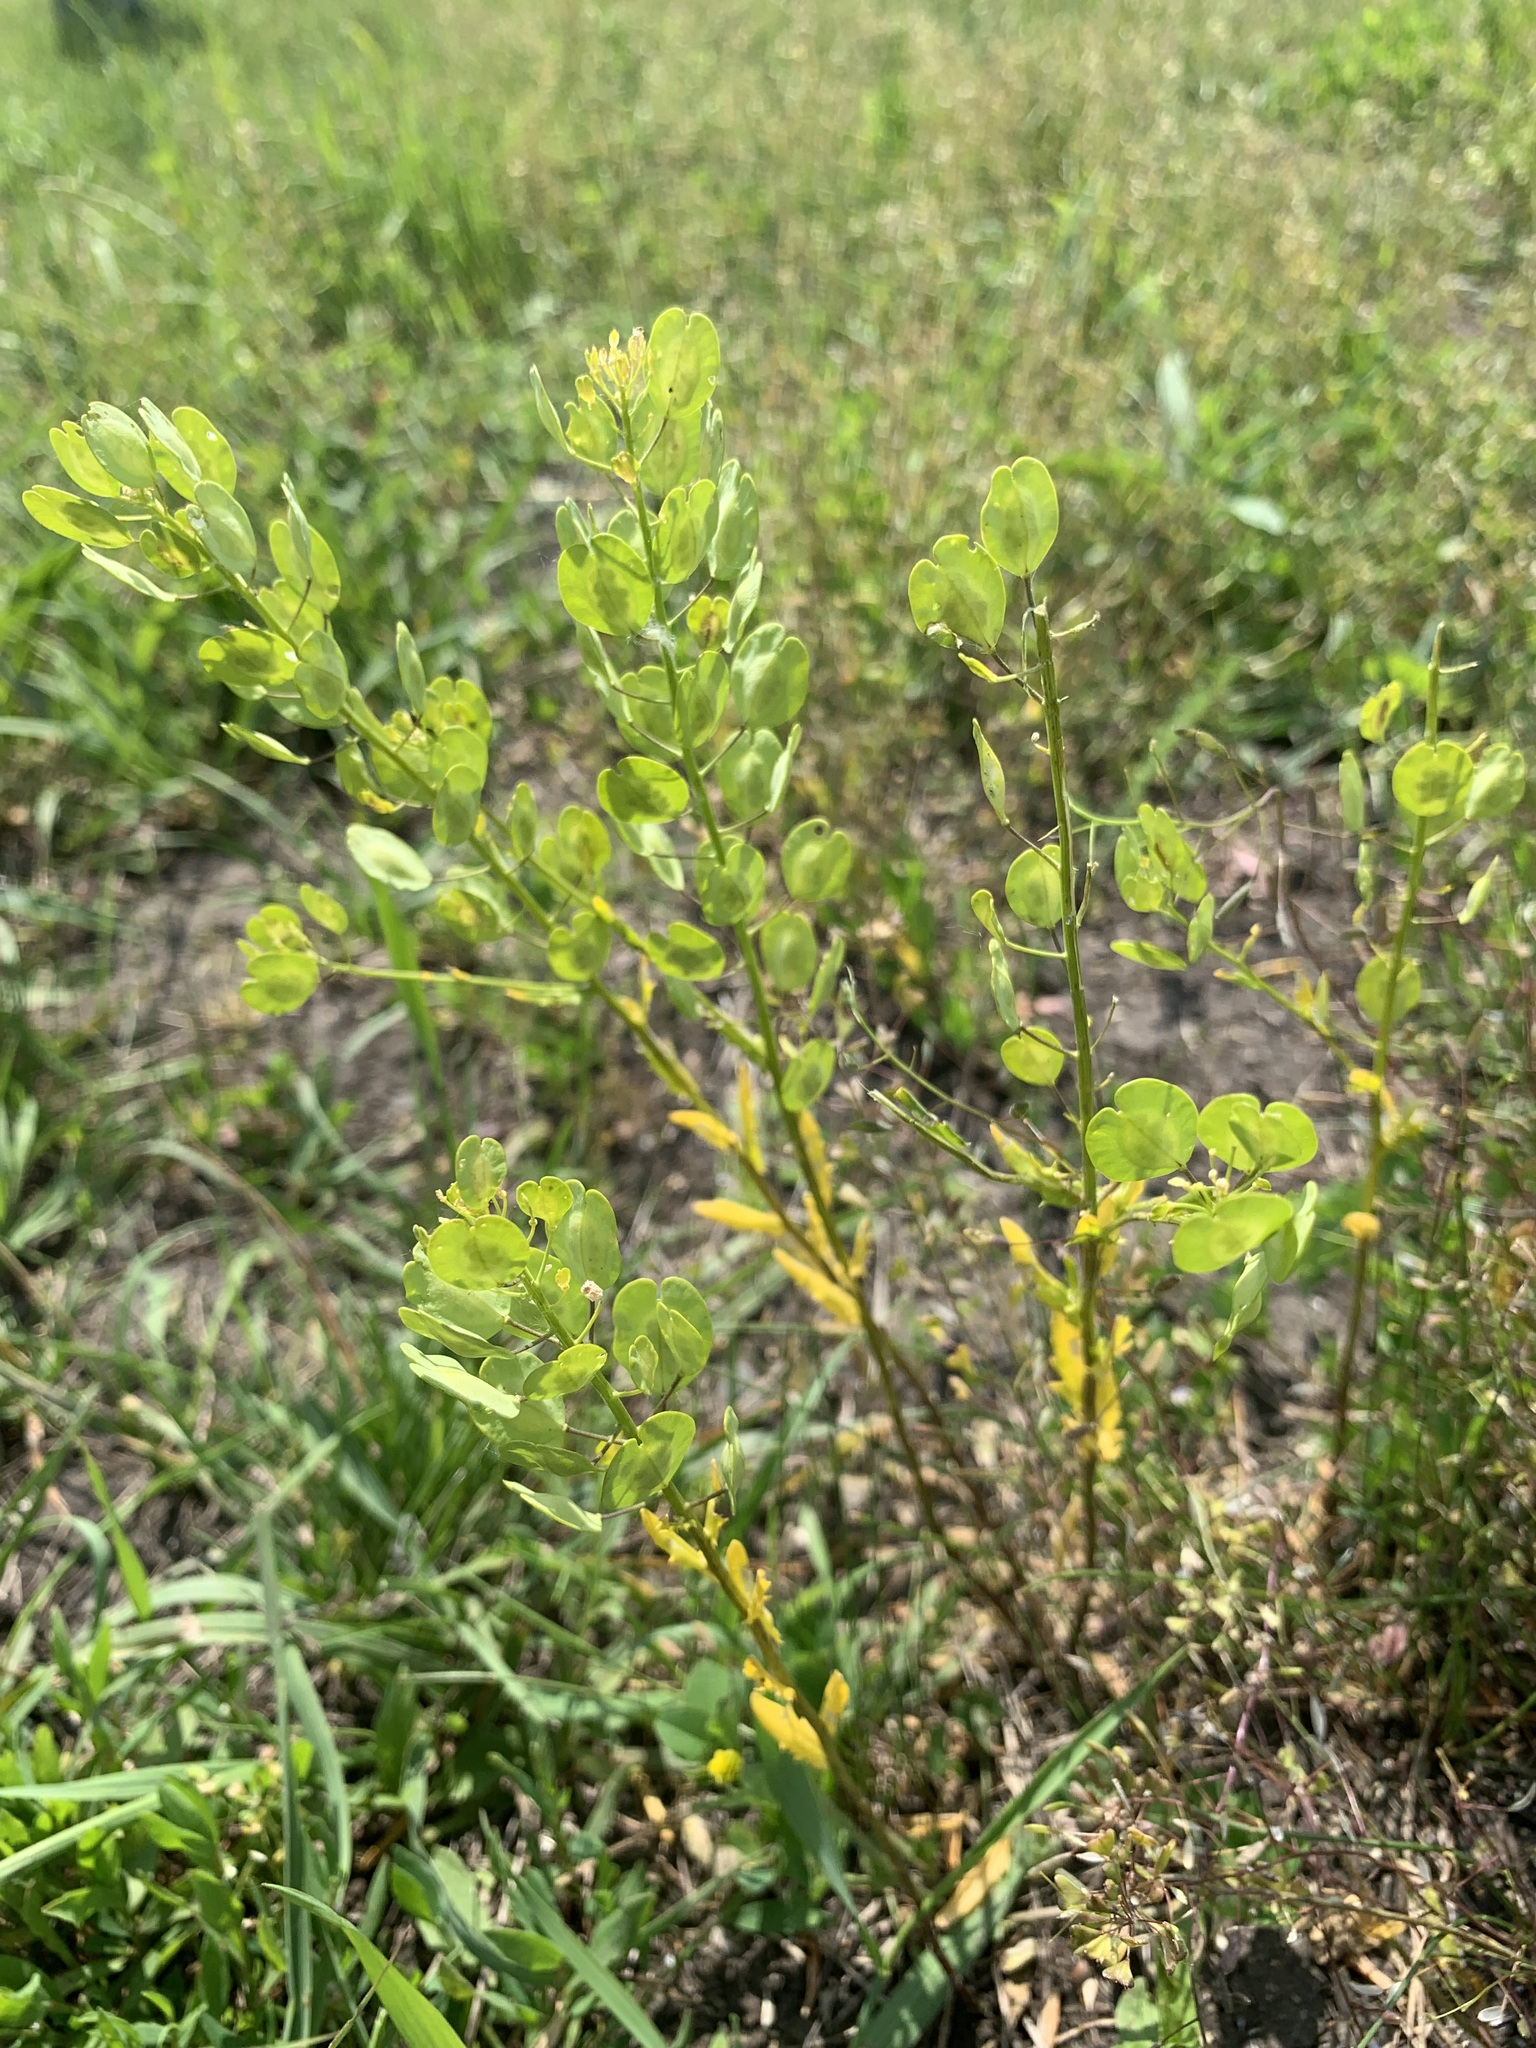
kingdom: Plantae
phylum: Tracheophyta
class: Magnoliopsida
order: Brassicales
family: Brassicaceae
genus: Thlaspi
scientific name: Thlaspi arvense
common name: Field pennycress
